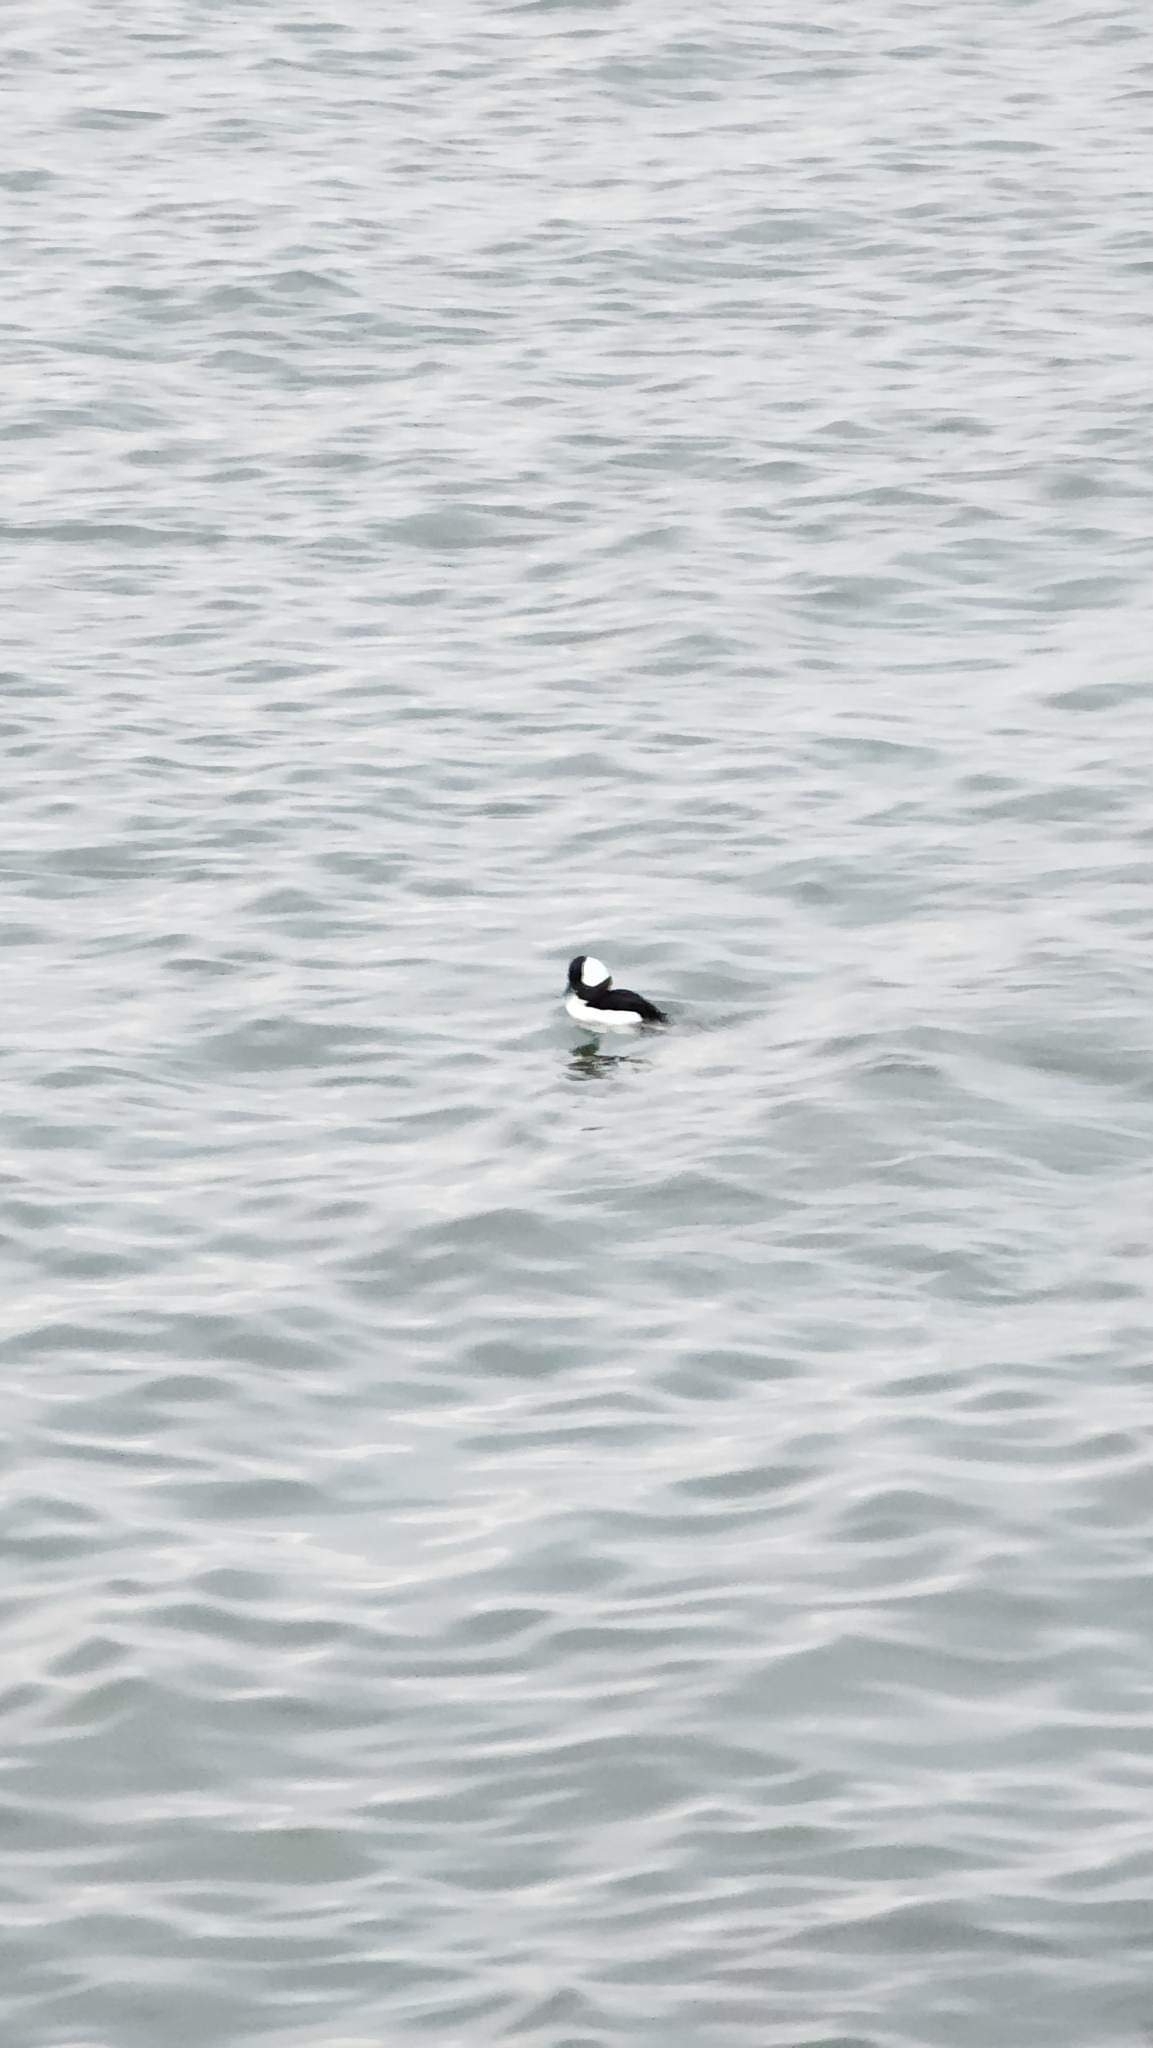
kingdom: Animalia
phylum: Chordata
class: Aves
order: Anseriformes
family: Anatidae
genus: Bucephala
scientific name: Bucephala albeola
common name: Bufflehead
